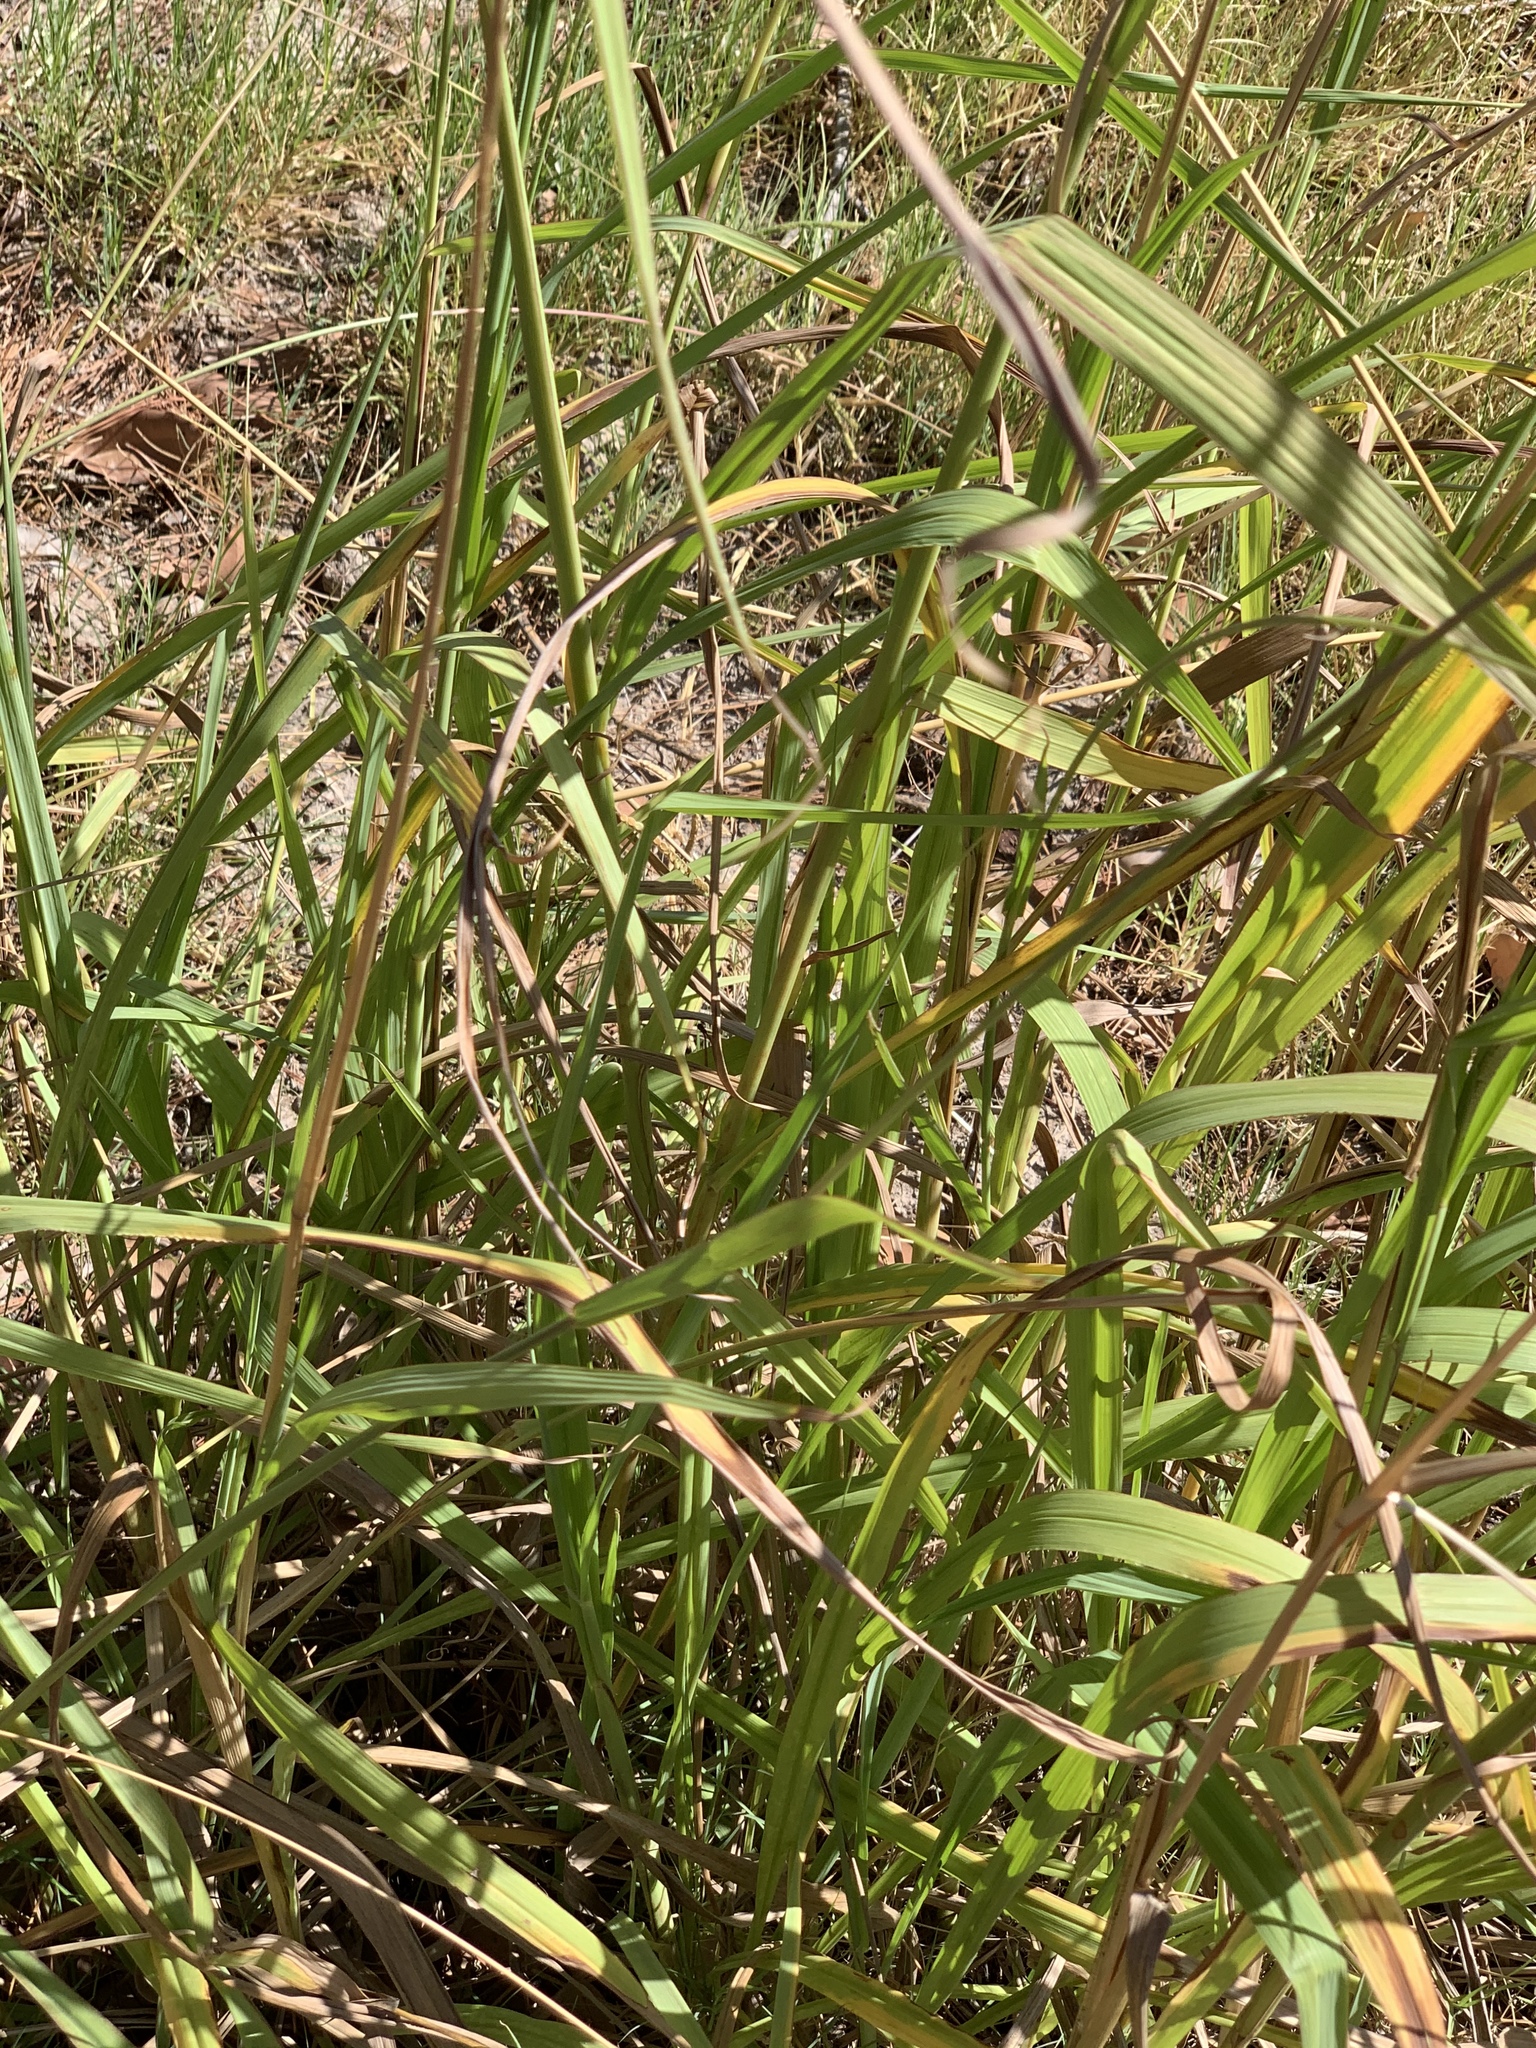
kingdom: Plantae
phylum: Tracheophyta
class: Liliopsida
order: Poales
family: Poaceae
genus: Paspalum
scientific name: Paspalum urvillei
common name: Vasey's grass
